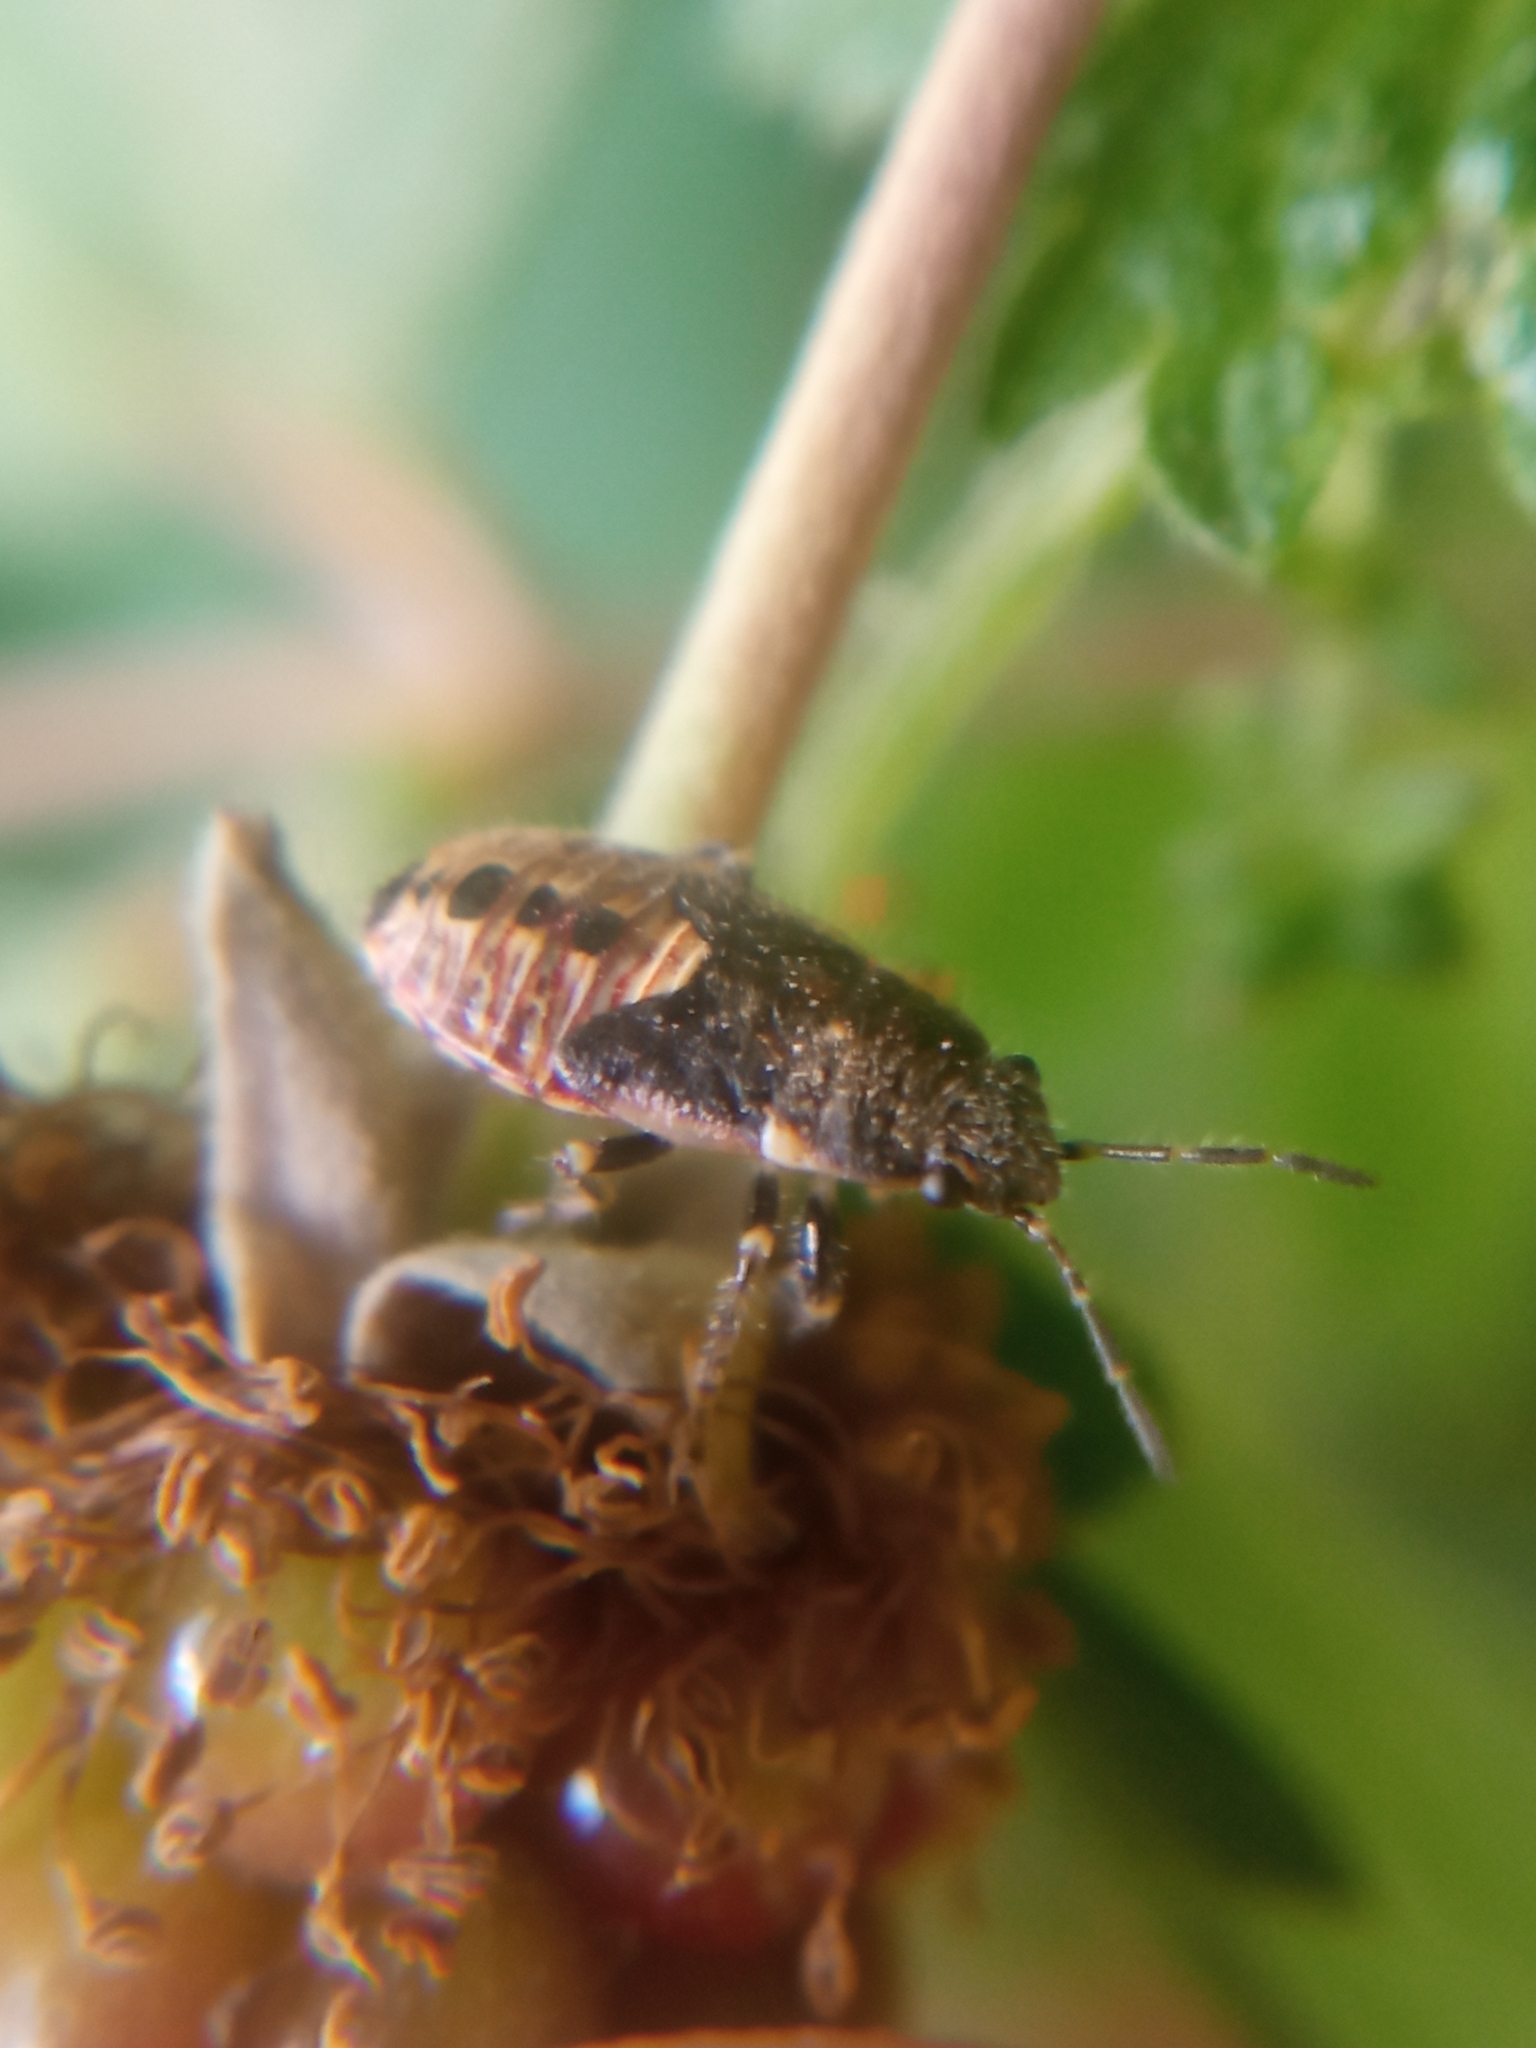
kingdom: Animalia
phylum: Arthropoda
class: Insecta
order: Hemiptera
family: Heterogastridae
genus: Heterogaster
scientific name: Heterogaster urticae
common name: Seed bug
